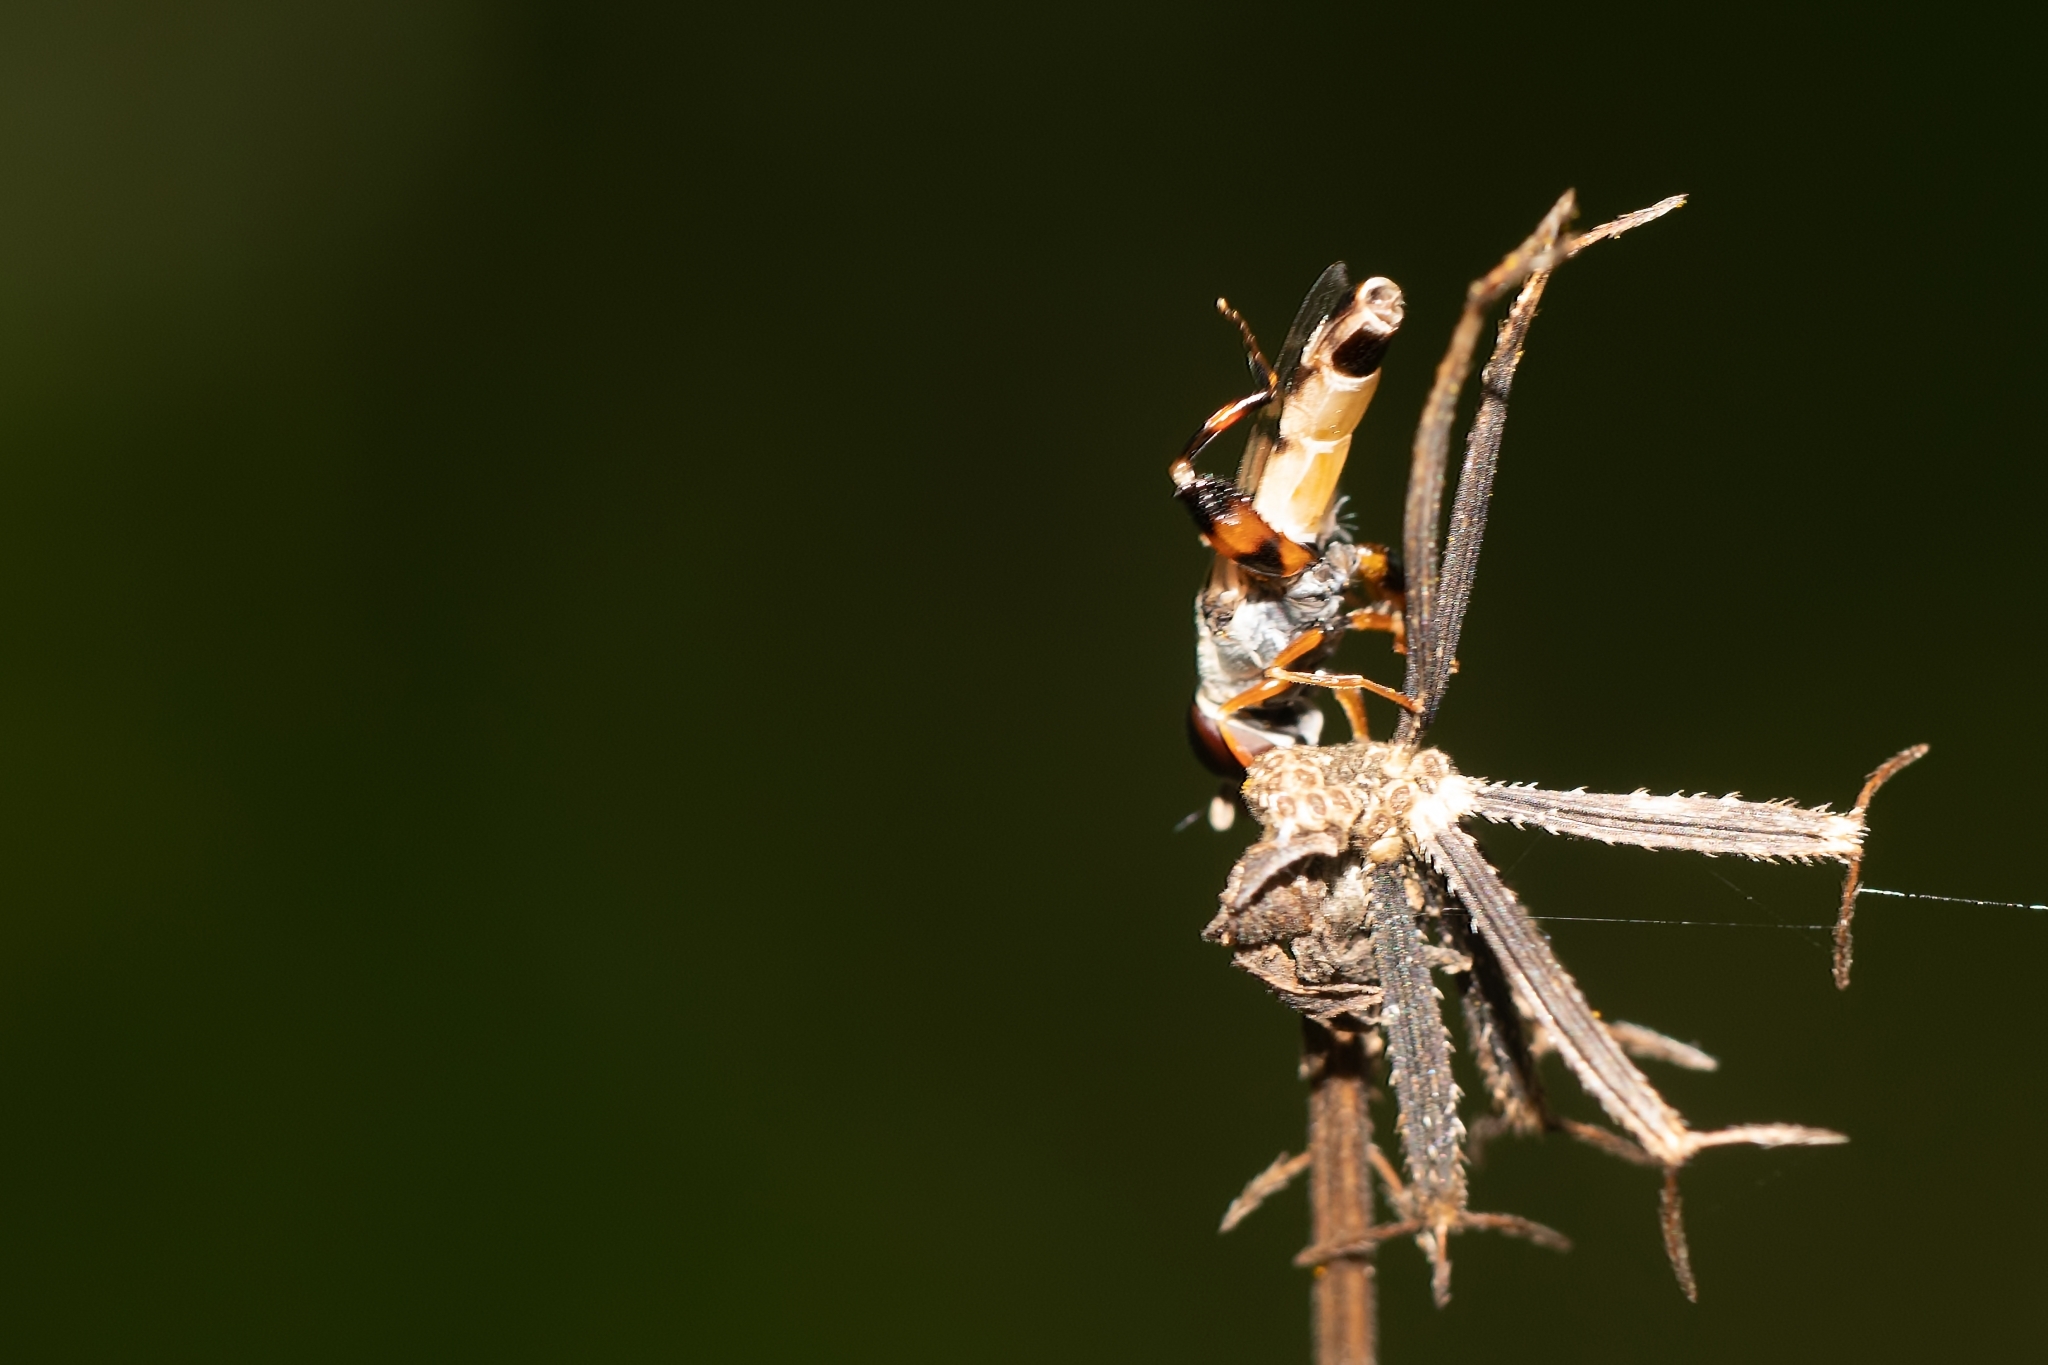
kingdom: Animalia
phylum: Arthropoda
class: Insecta
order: Diptera
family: Syrphidae
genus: Syritta
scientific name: Syritta flaviventris
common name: Syrphid fly
